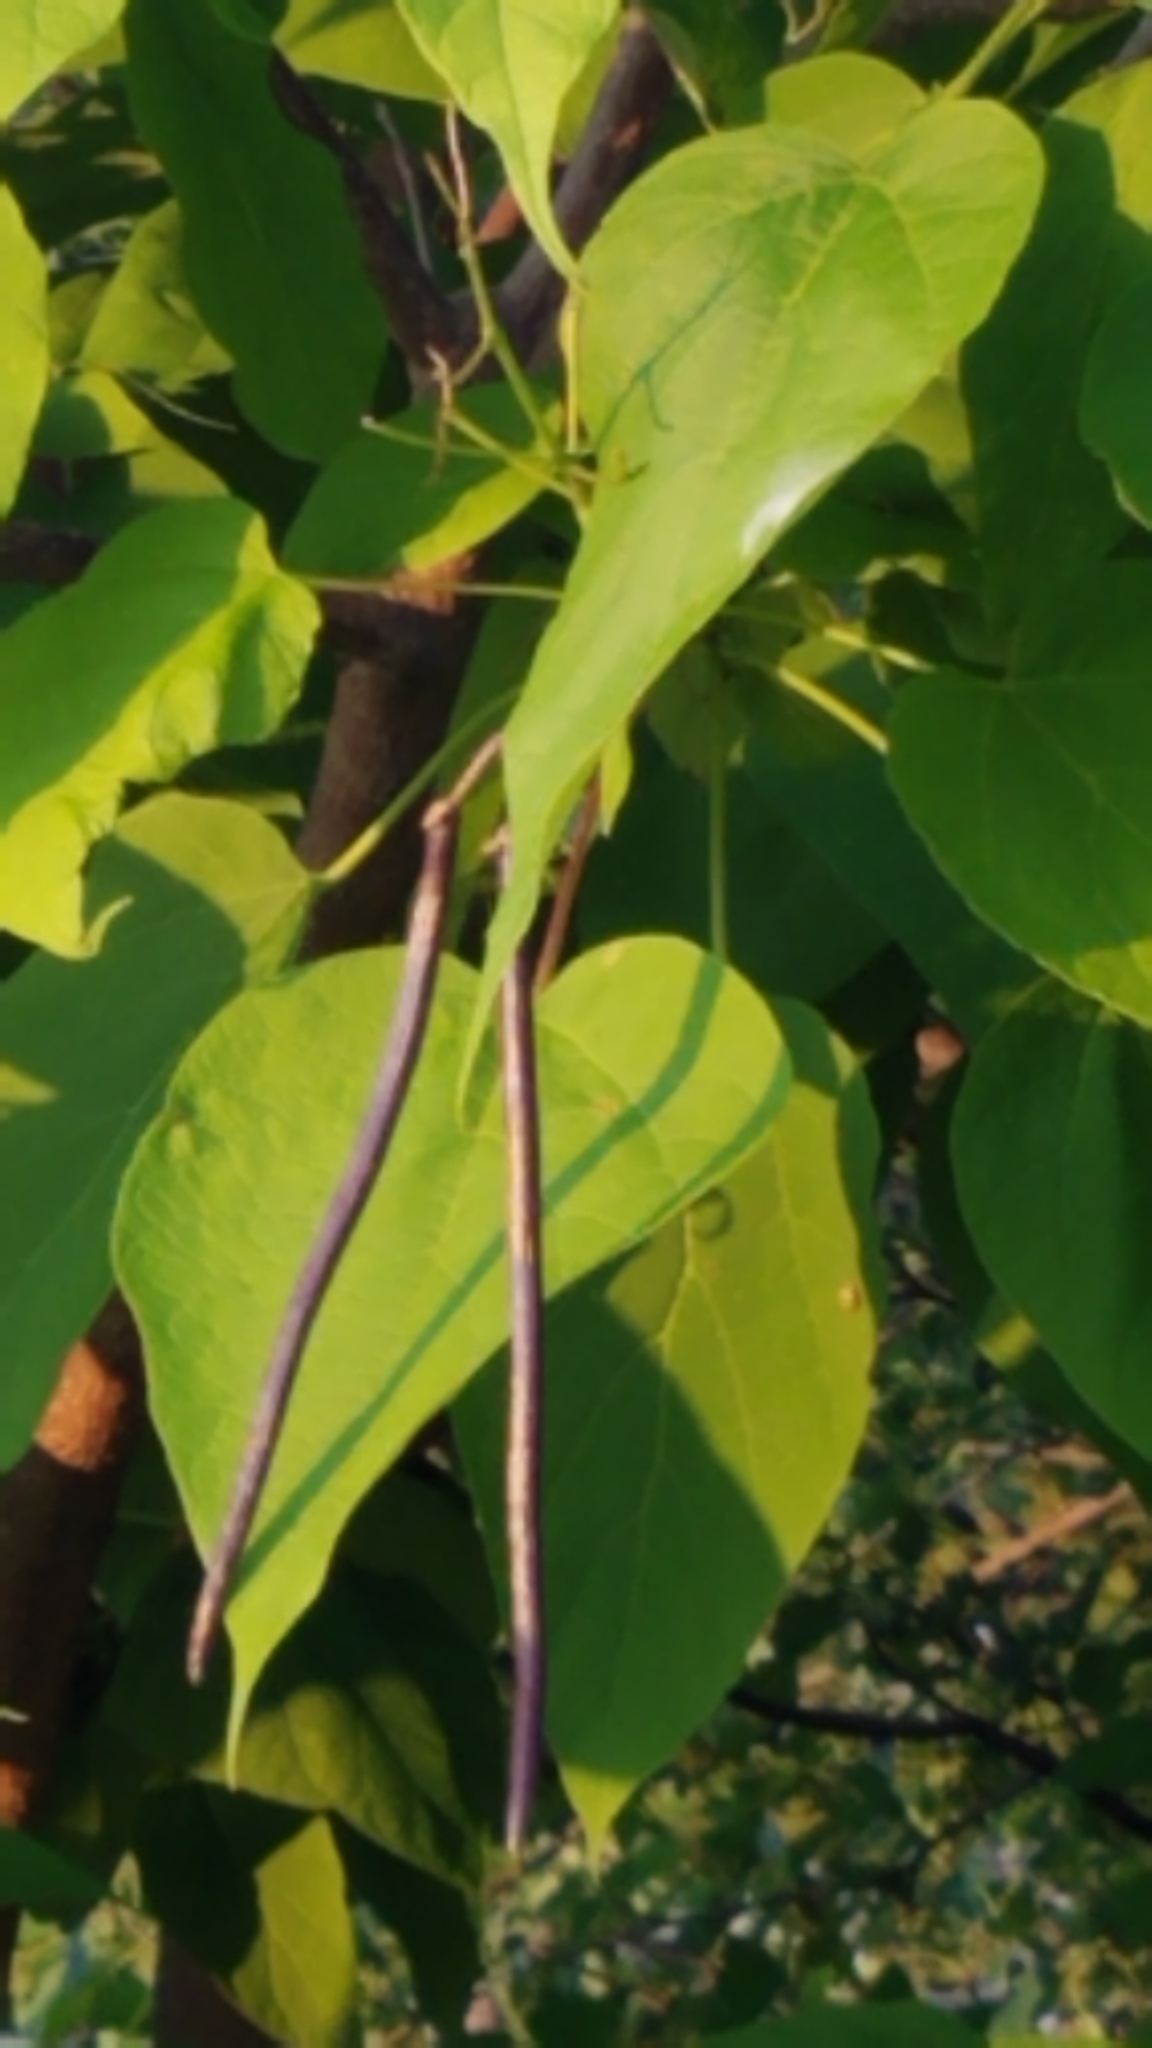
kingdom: Plantae
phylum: Tracheophyta
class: Magnoliopsida
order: Lamiales
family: Bignoniaceae
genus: Catalpa
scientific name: Catalpa speciosa
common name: Northern catalpa
